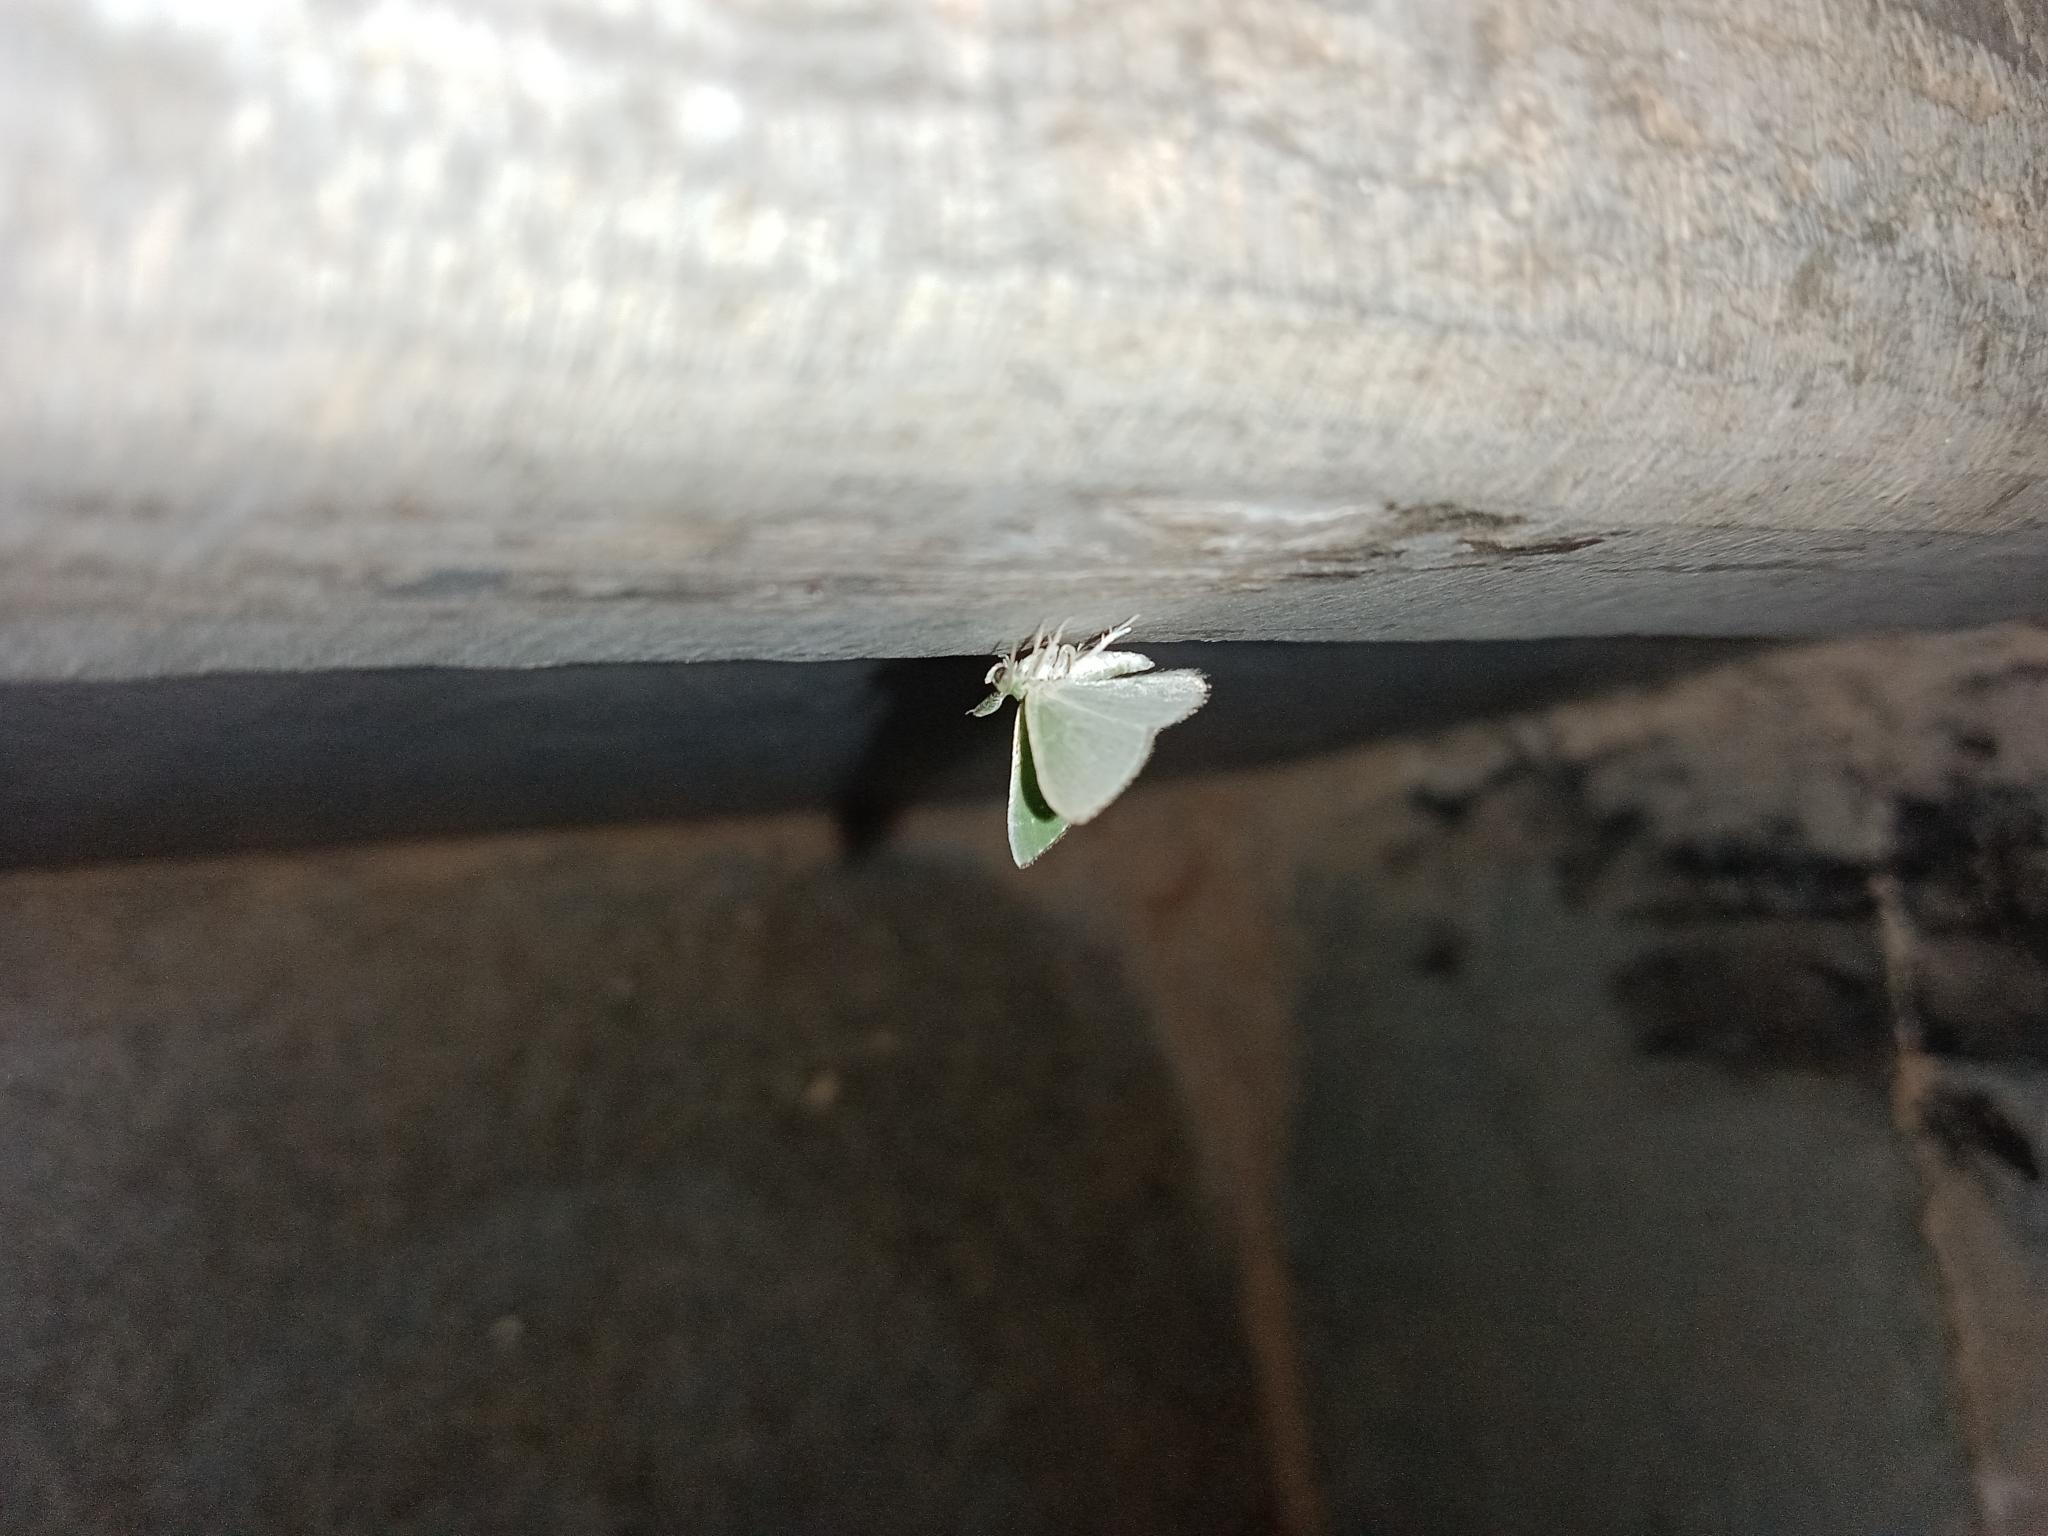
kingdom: Animalia
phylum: Arthropoda
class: Insecta
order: Lepidoptera
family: Geometridae
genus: Argyrocosma
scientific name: Argyrocosma inductaria
